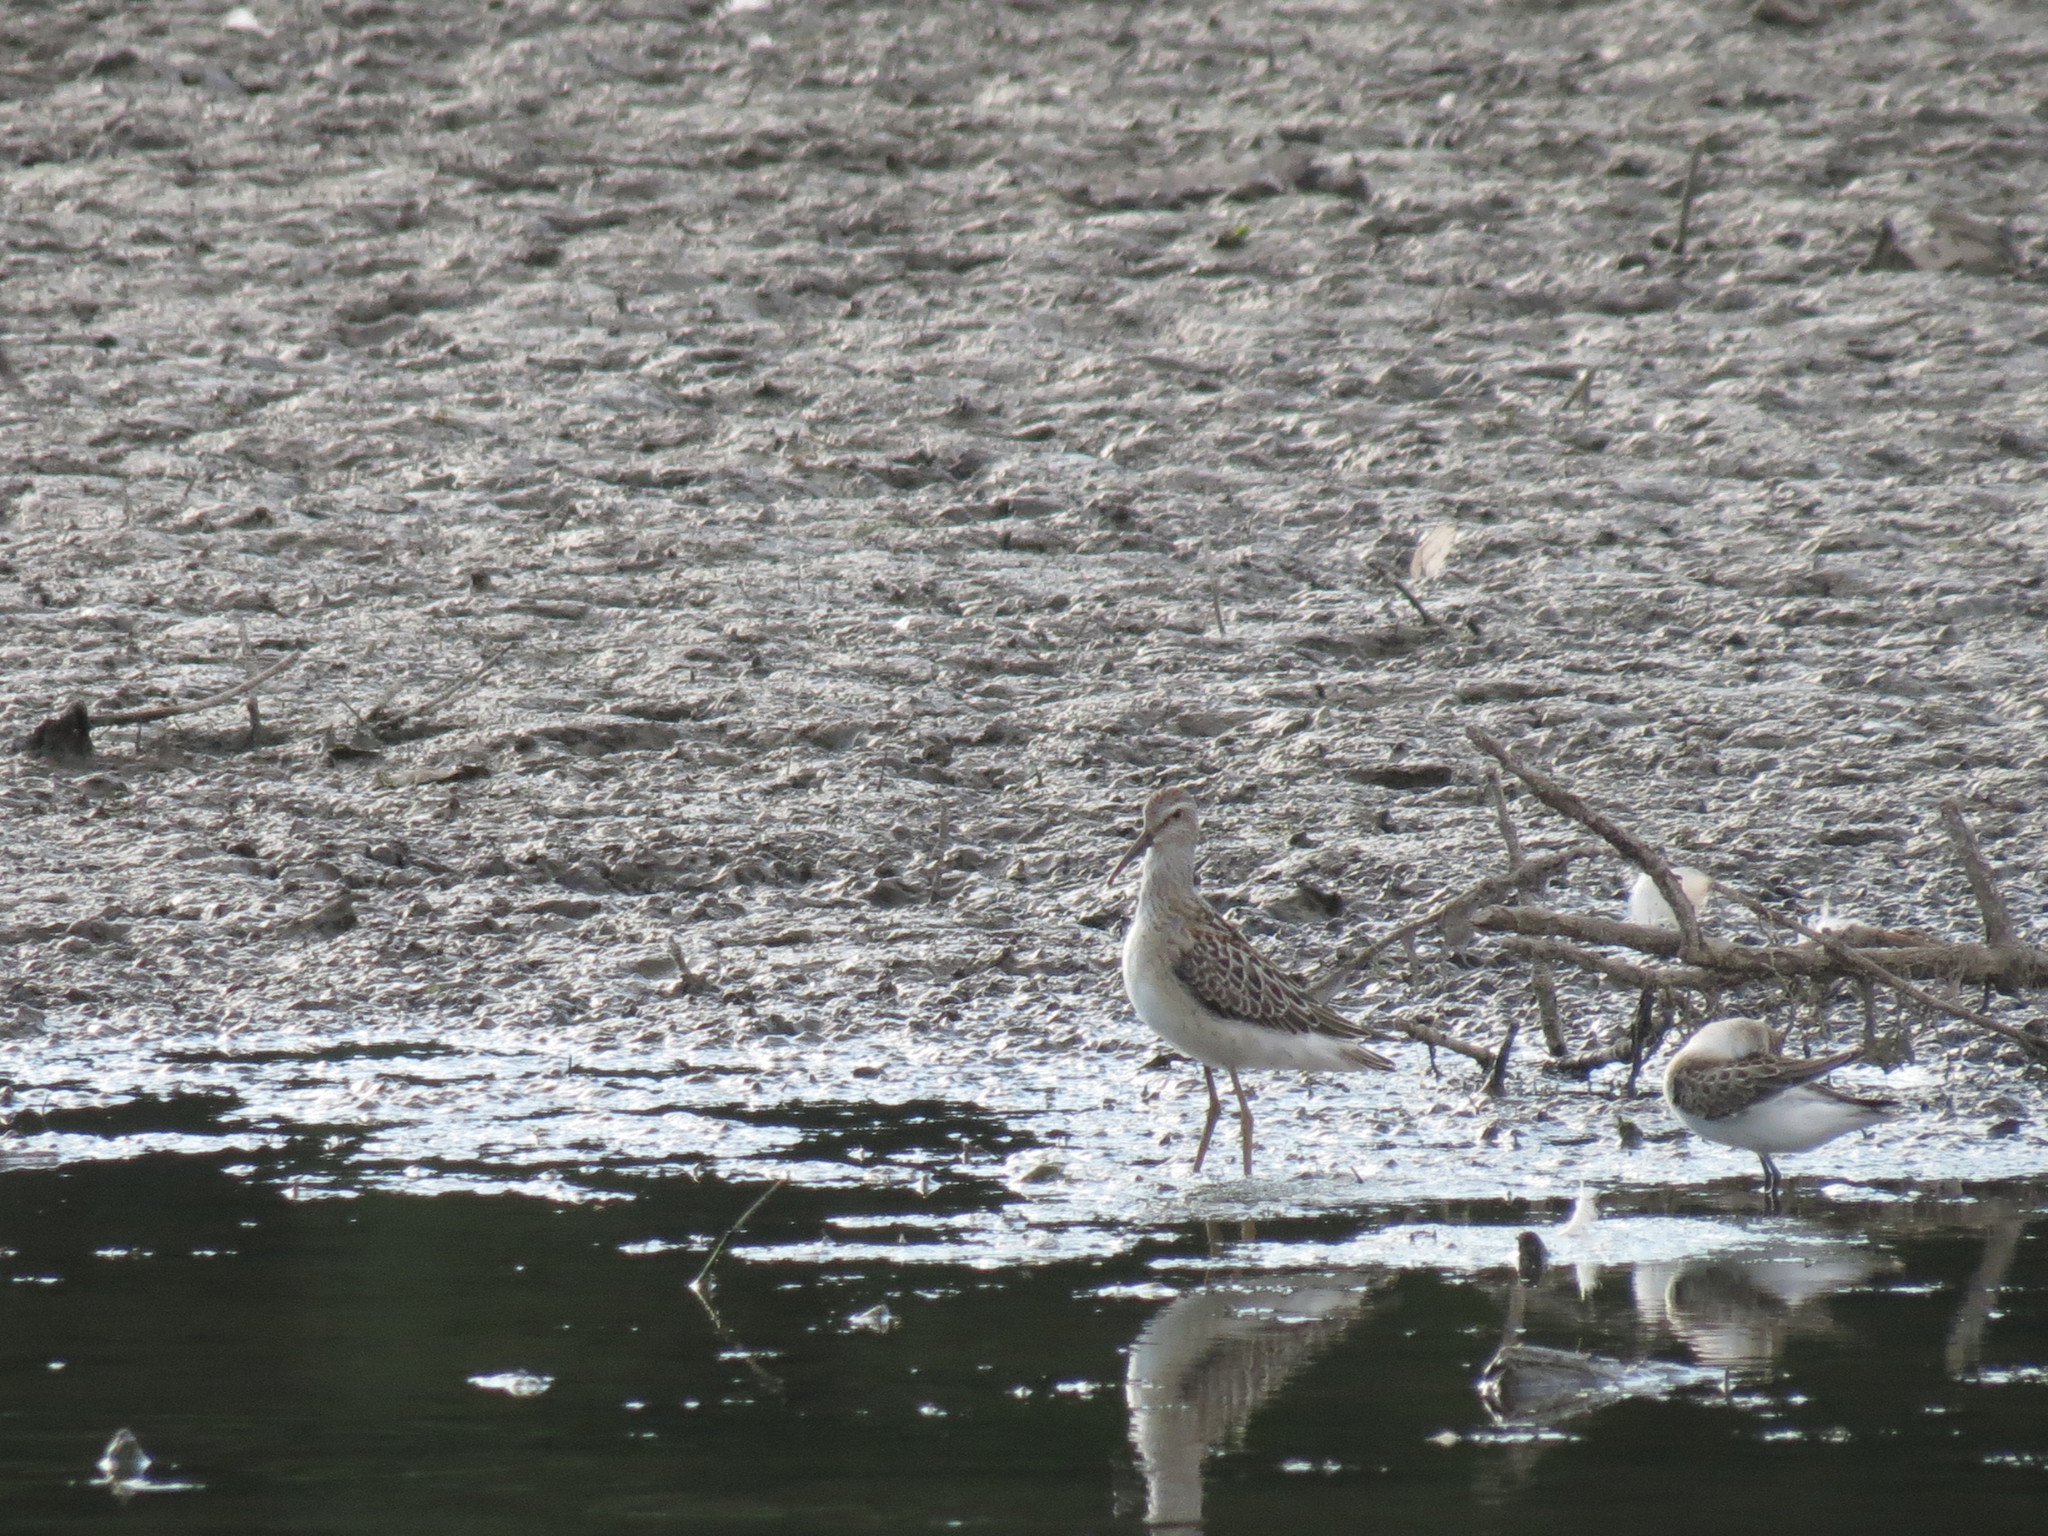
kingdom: Animalia
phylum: Chordata
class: Aves
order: Charadriiformes
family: Scolopacidae
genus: Calidris
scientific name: Calidris himantopus
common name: Stilt sandpiper
